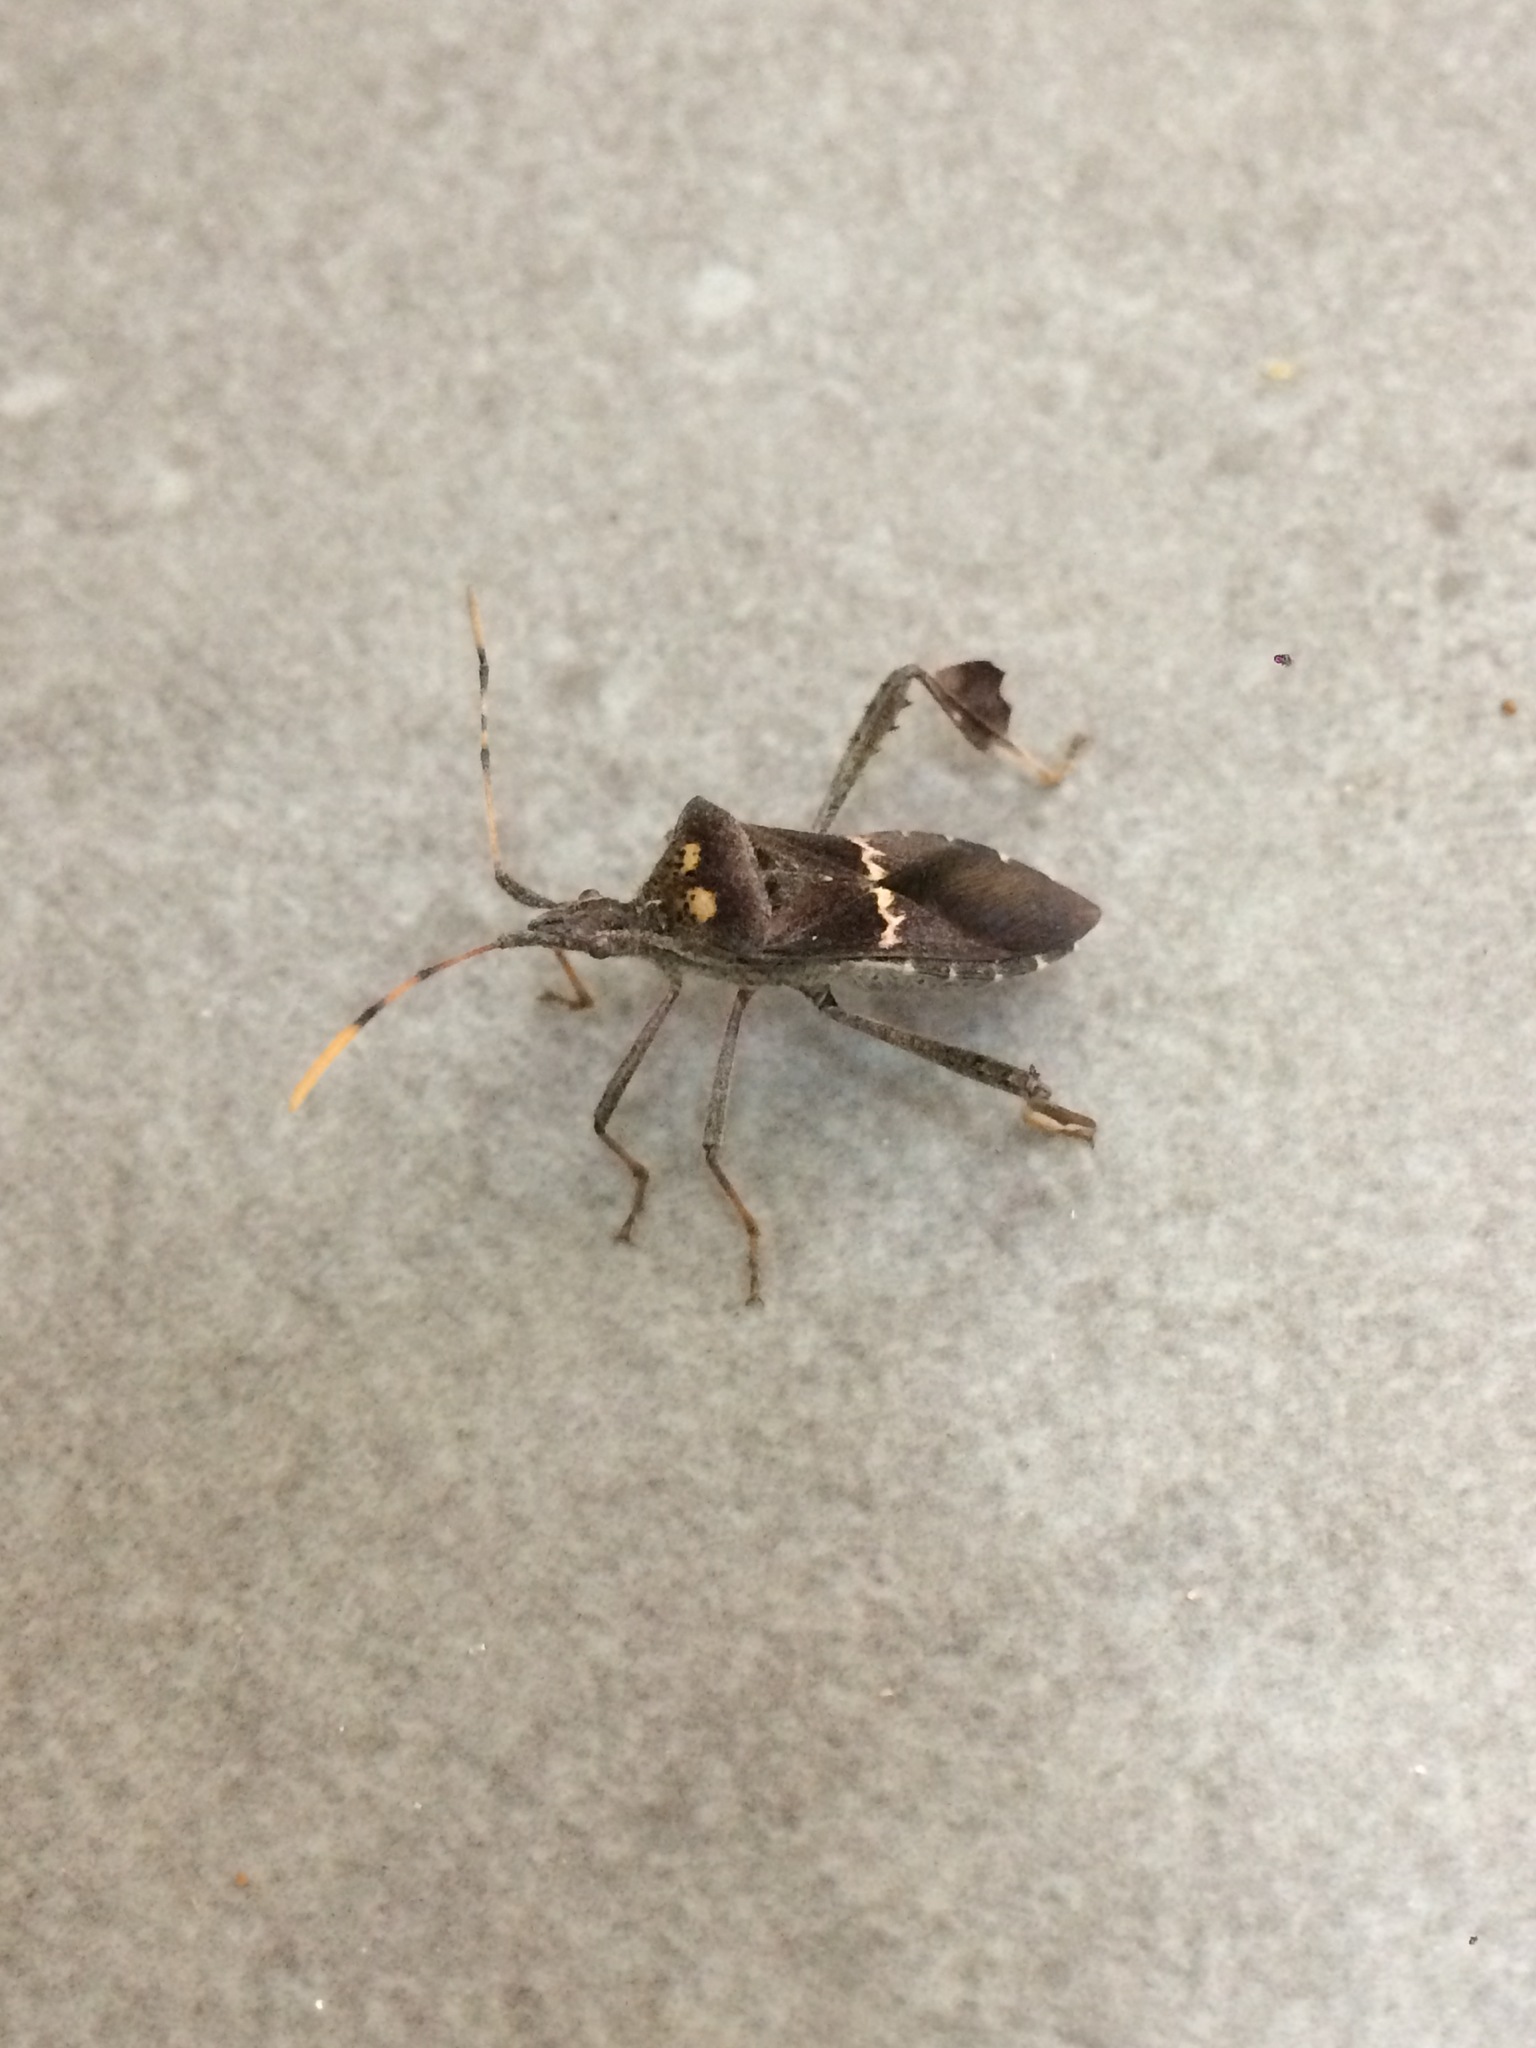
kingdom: Animalia
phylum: Arthropoda
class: Insecta
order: Hemiptera
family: Coreidae
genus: Leptoglossus
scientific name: Leptoglossus zonatus
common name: Large-legged bug
